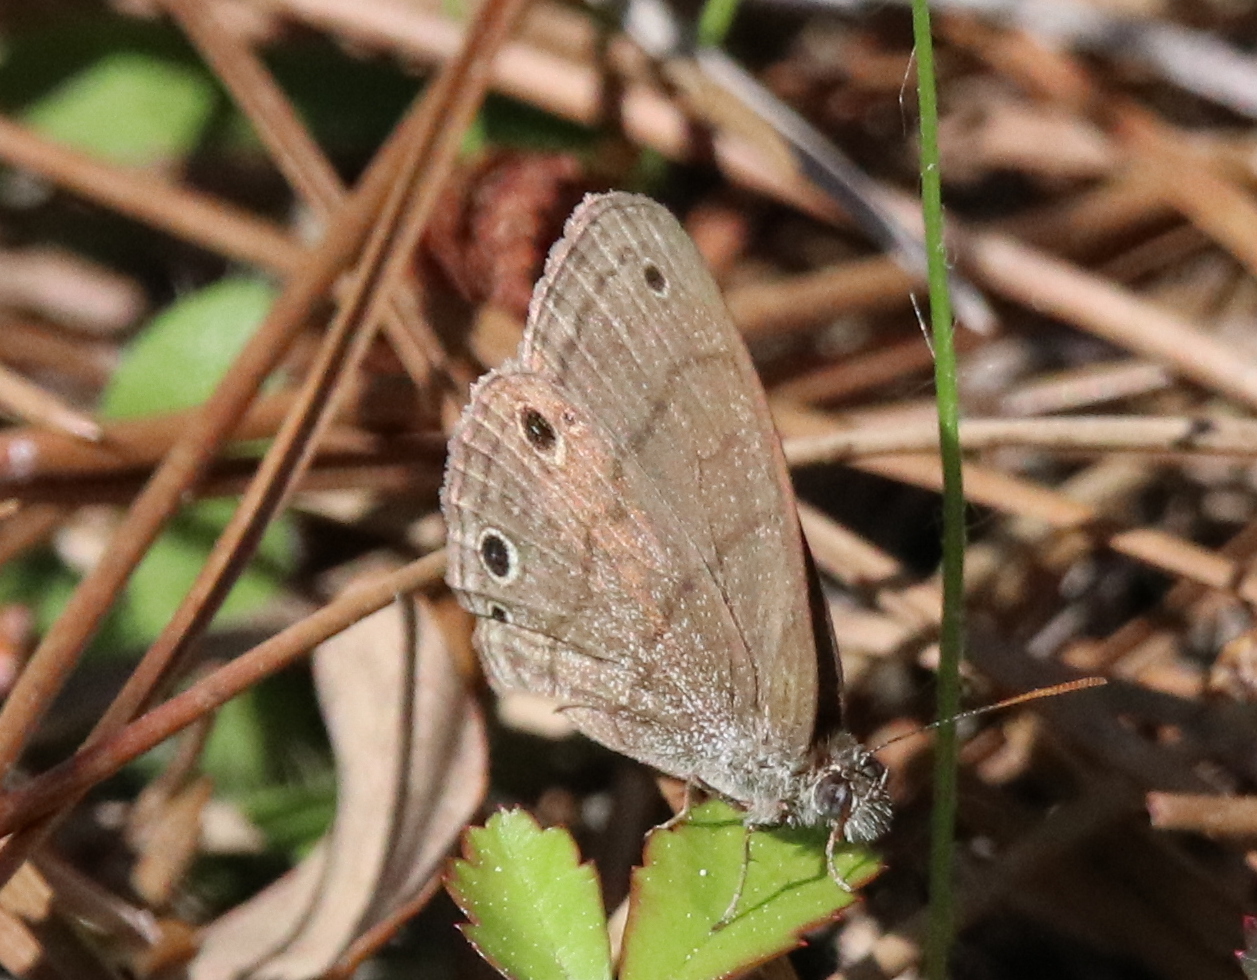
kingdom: Animalia
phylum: Arthropoda
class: Insecta
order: Lepidoptera
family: Nymphalidae
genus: Hermeuptychia
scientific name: Hermeuptychia hermes
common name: Hermes satyr
